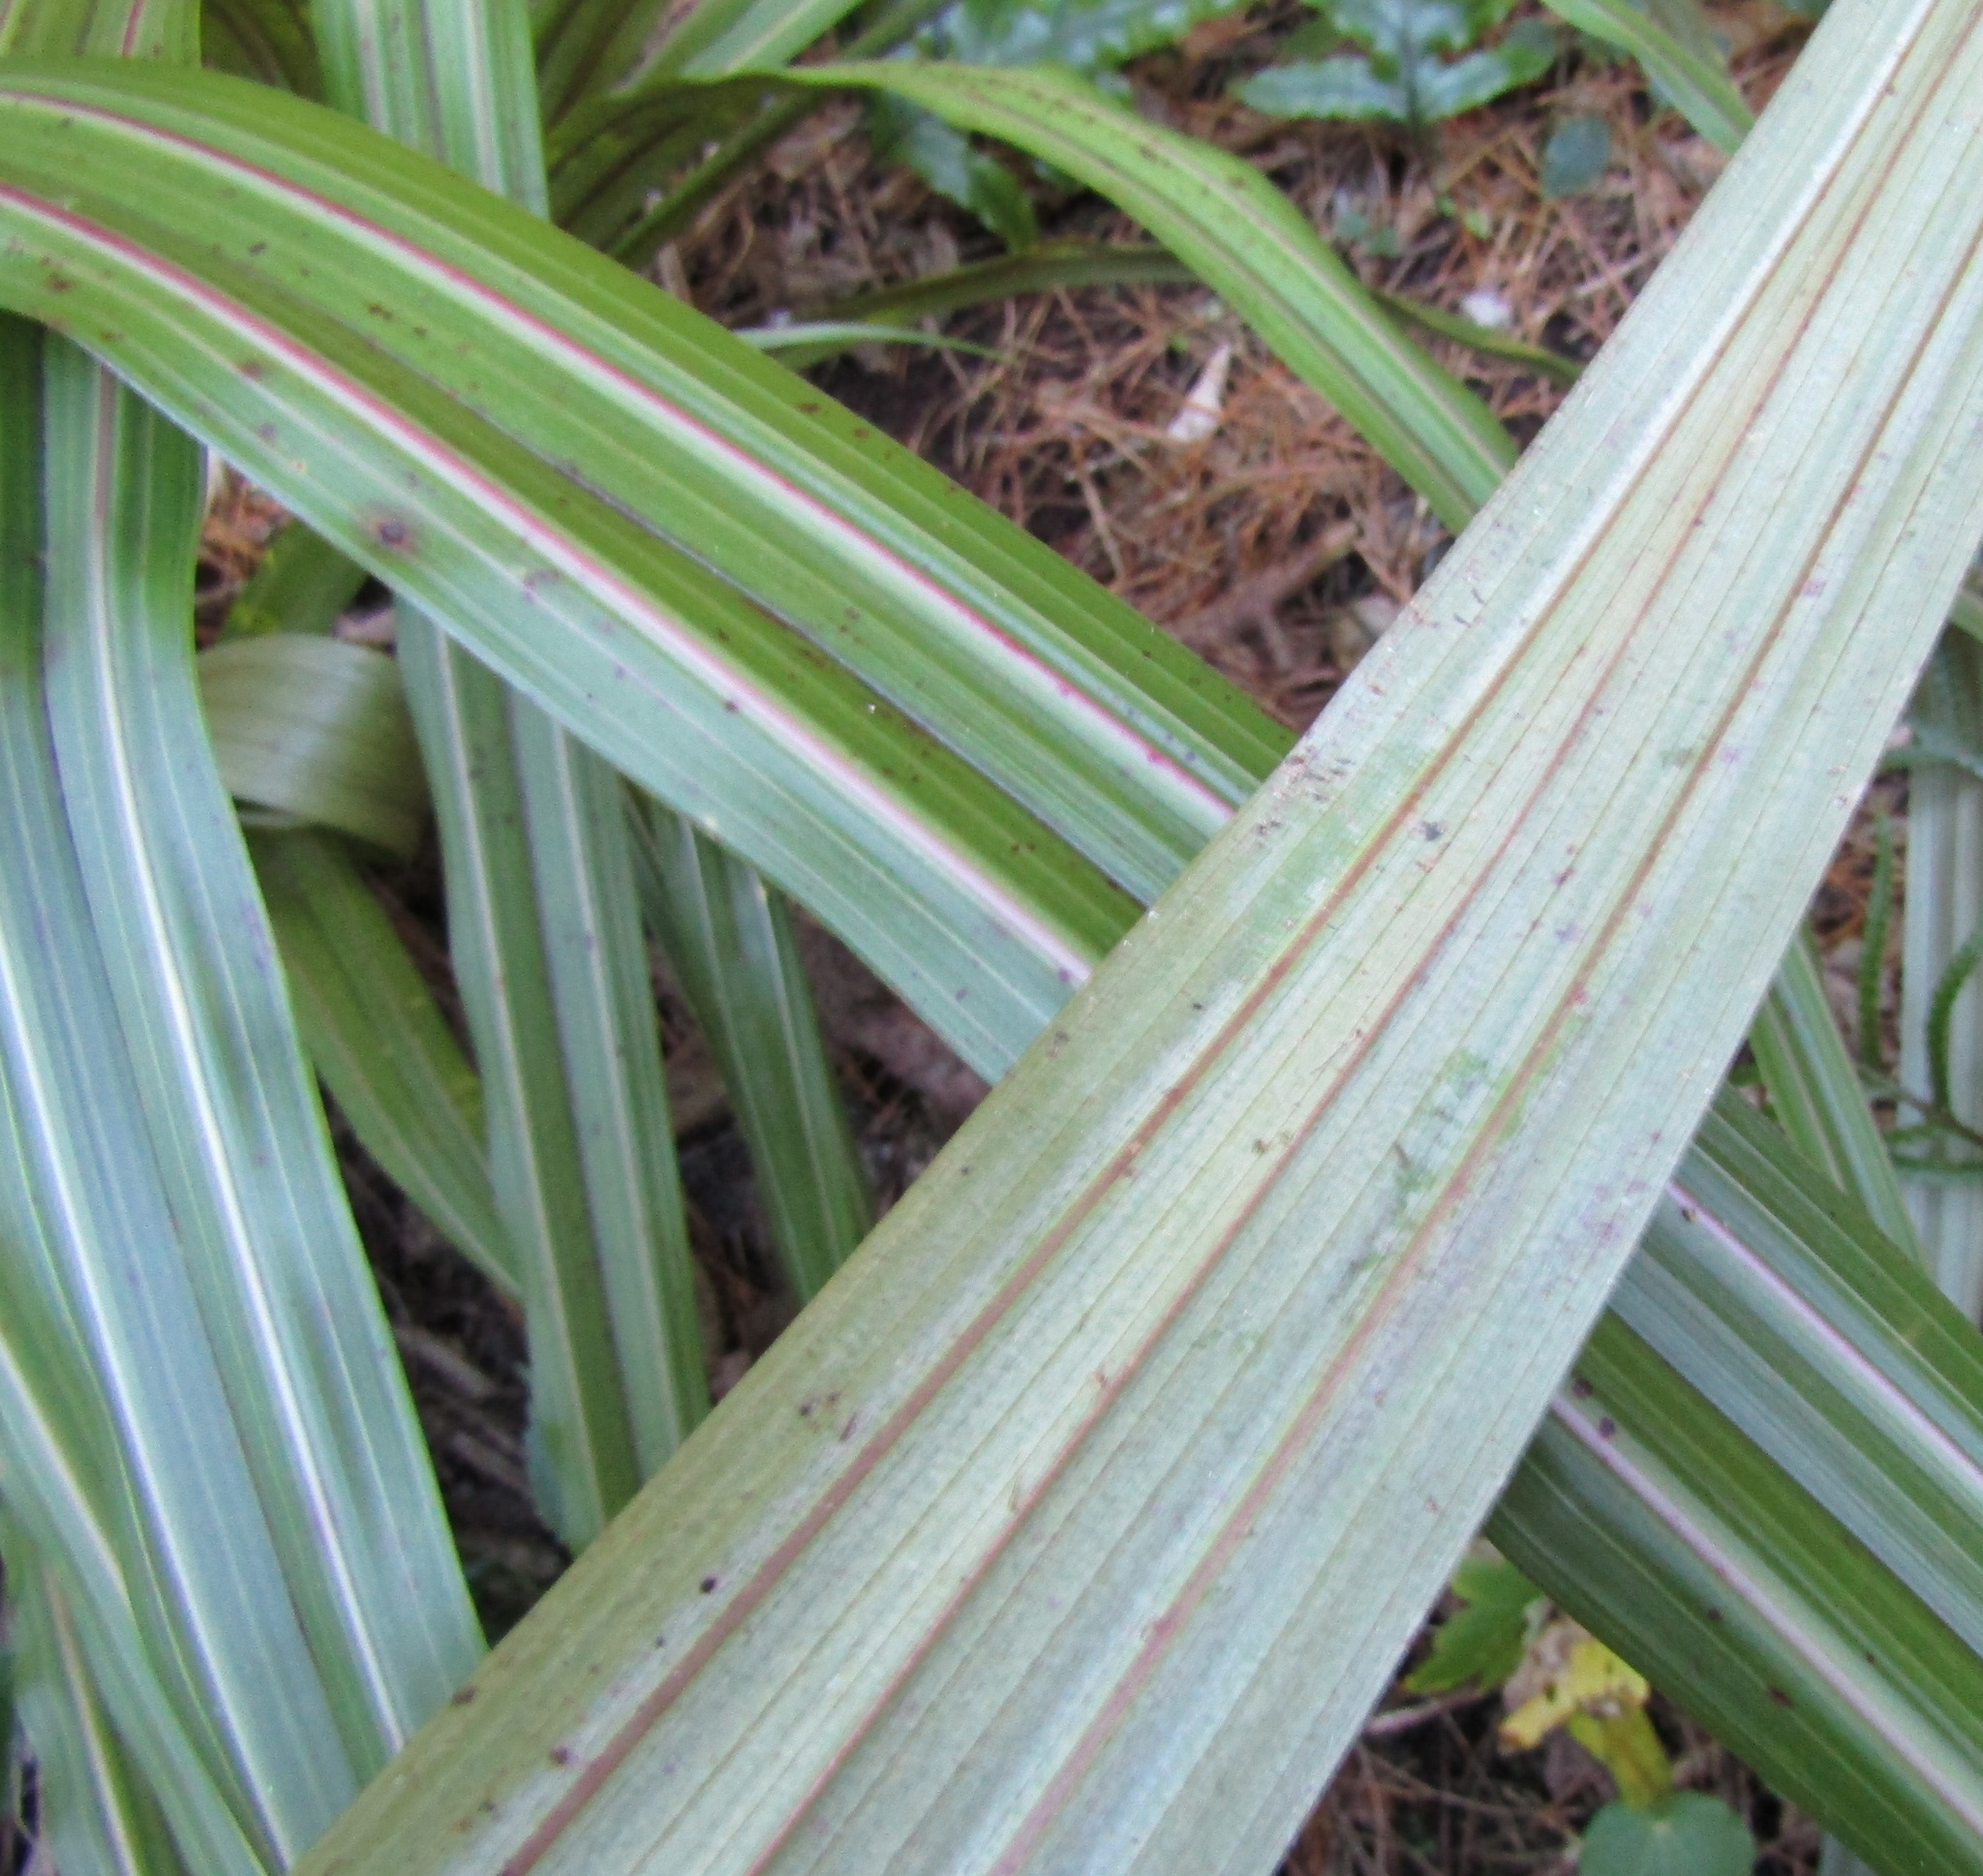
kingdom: Plantae
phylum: Tracheophyta
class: Liliopsida
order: Asparagales
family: Asteliaceae
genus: Astelia
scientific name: Astelia fragrans
